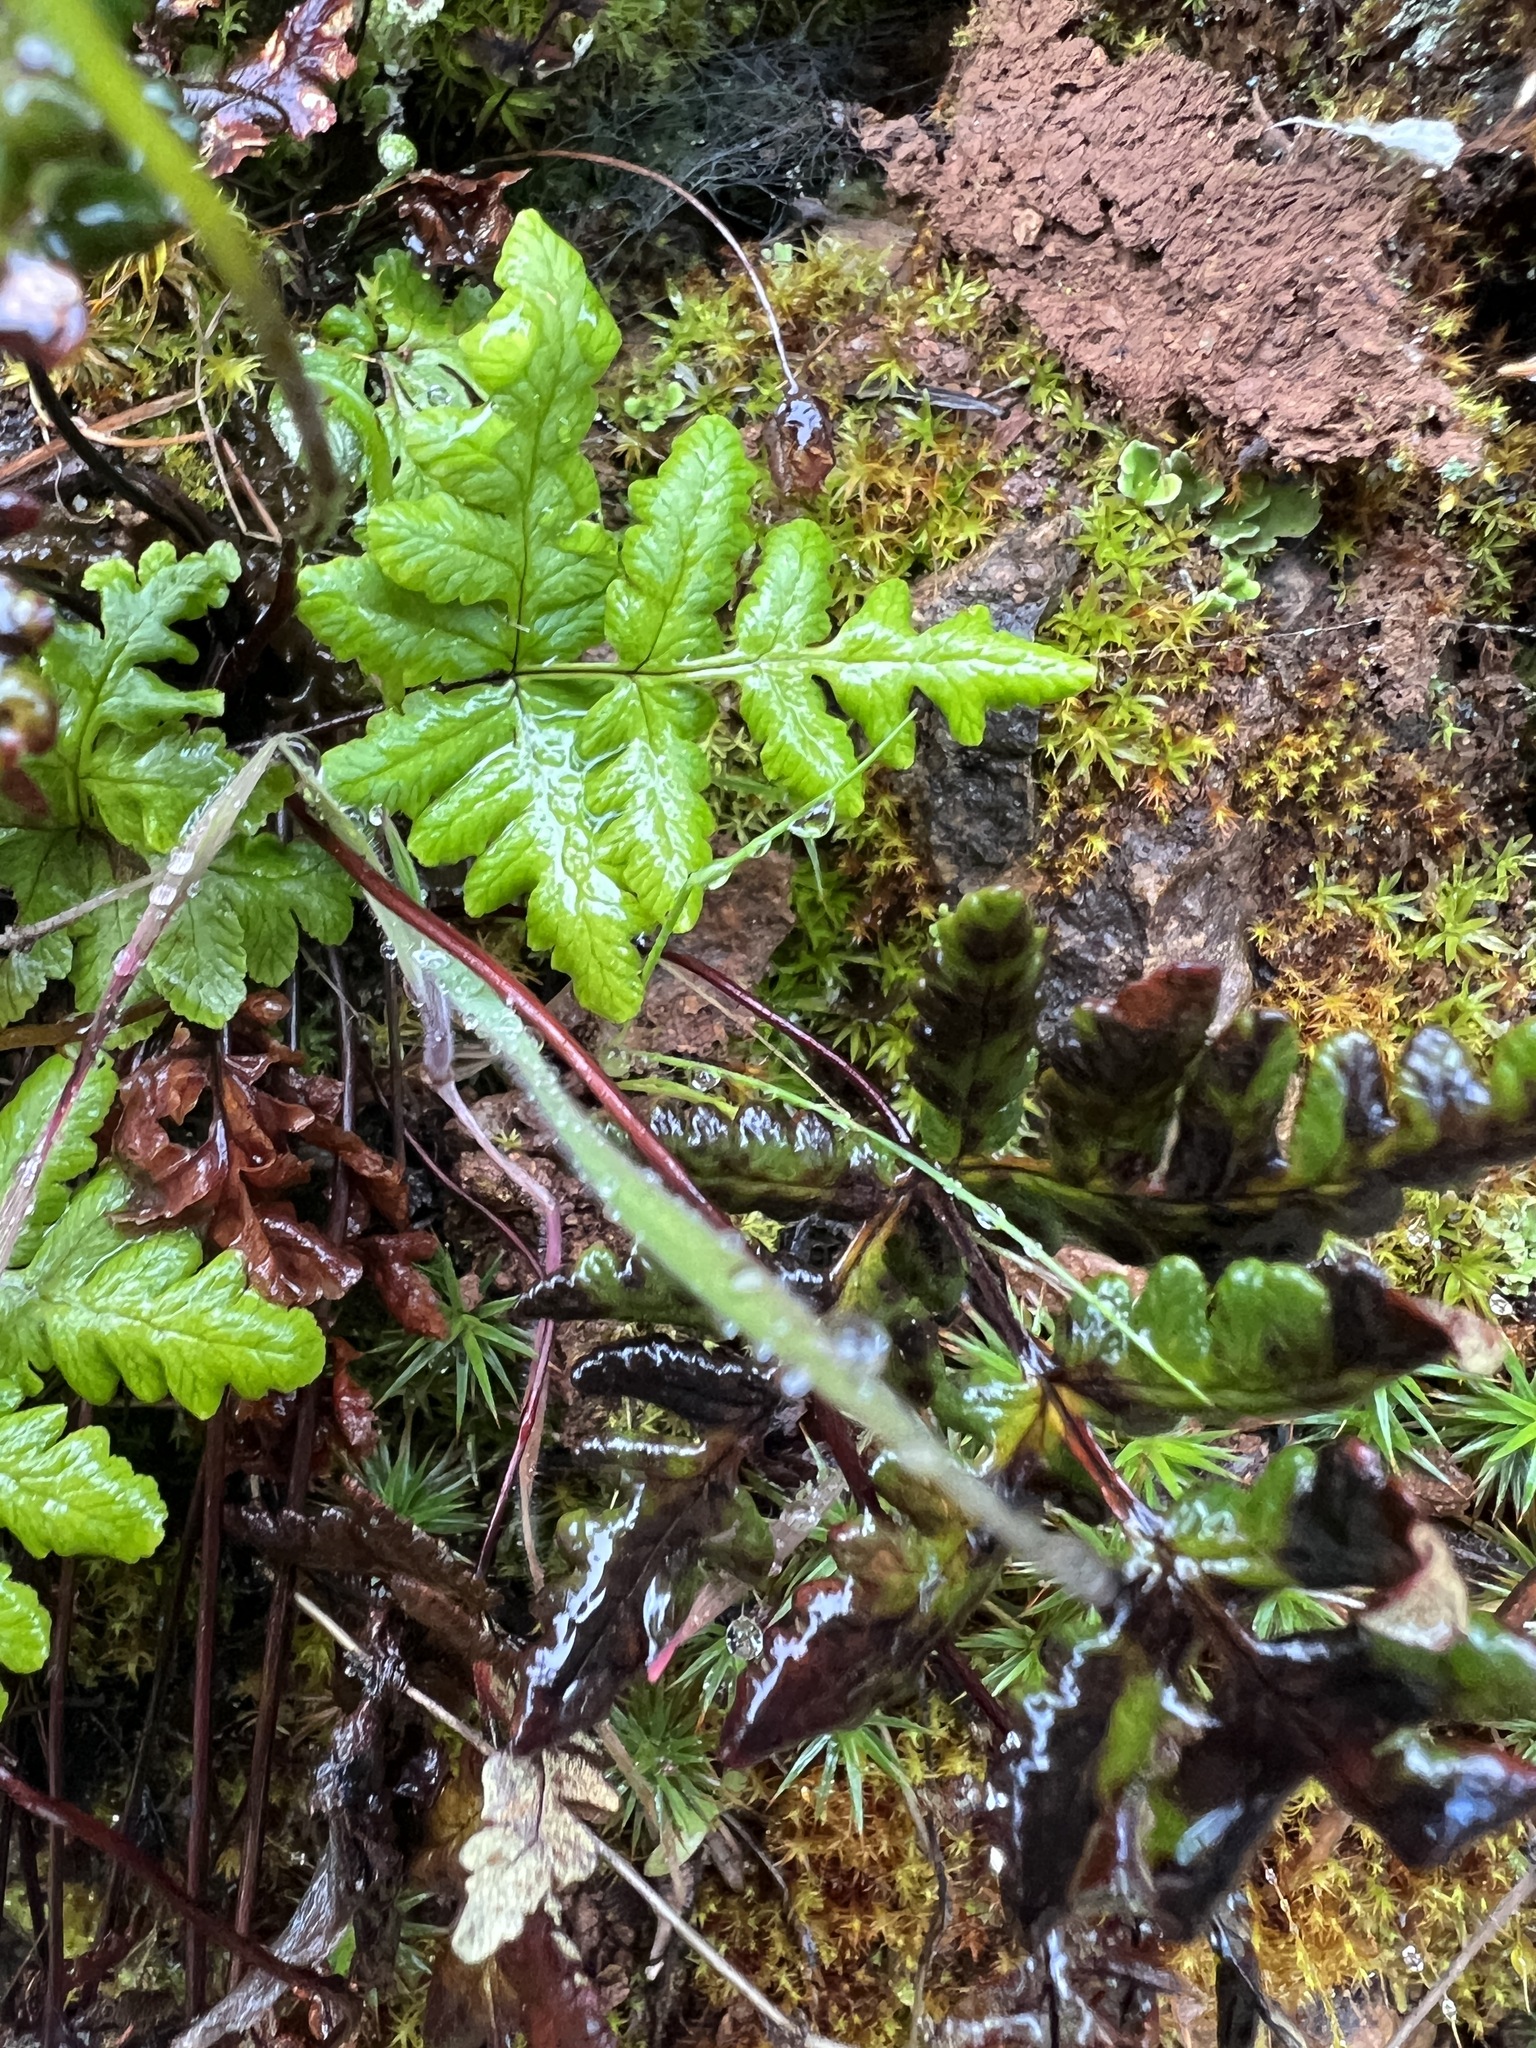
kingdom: Plantae
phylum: Tracheophyta
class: Polypodiopsida
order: Polypodiales
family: Pteridaceae
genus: Pentagramma
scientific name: Pentagramma triangularis
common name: Gold fern
